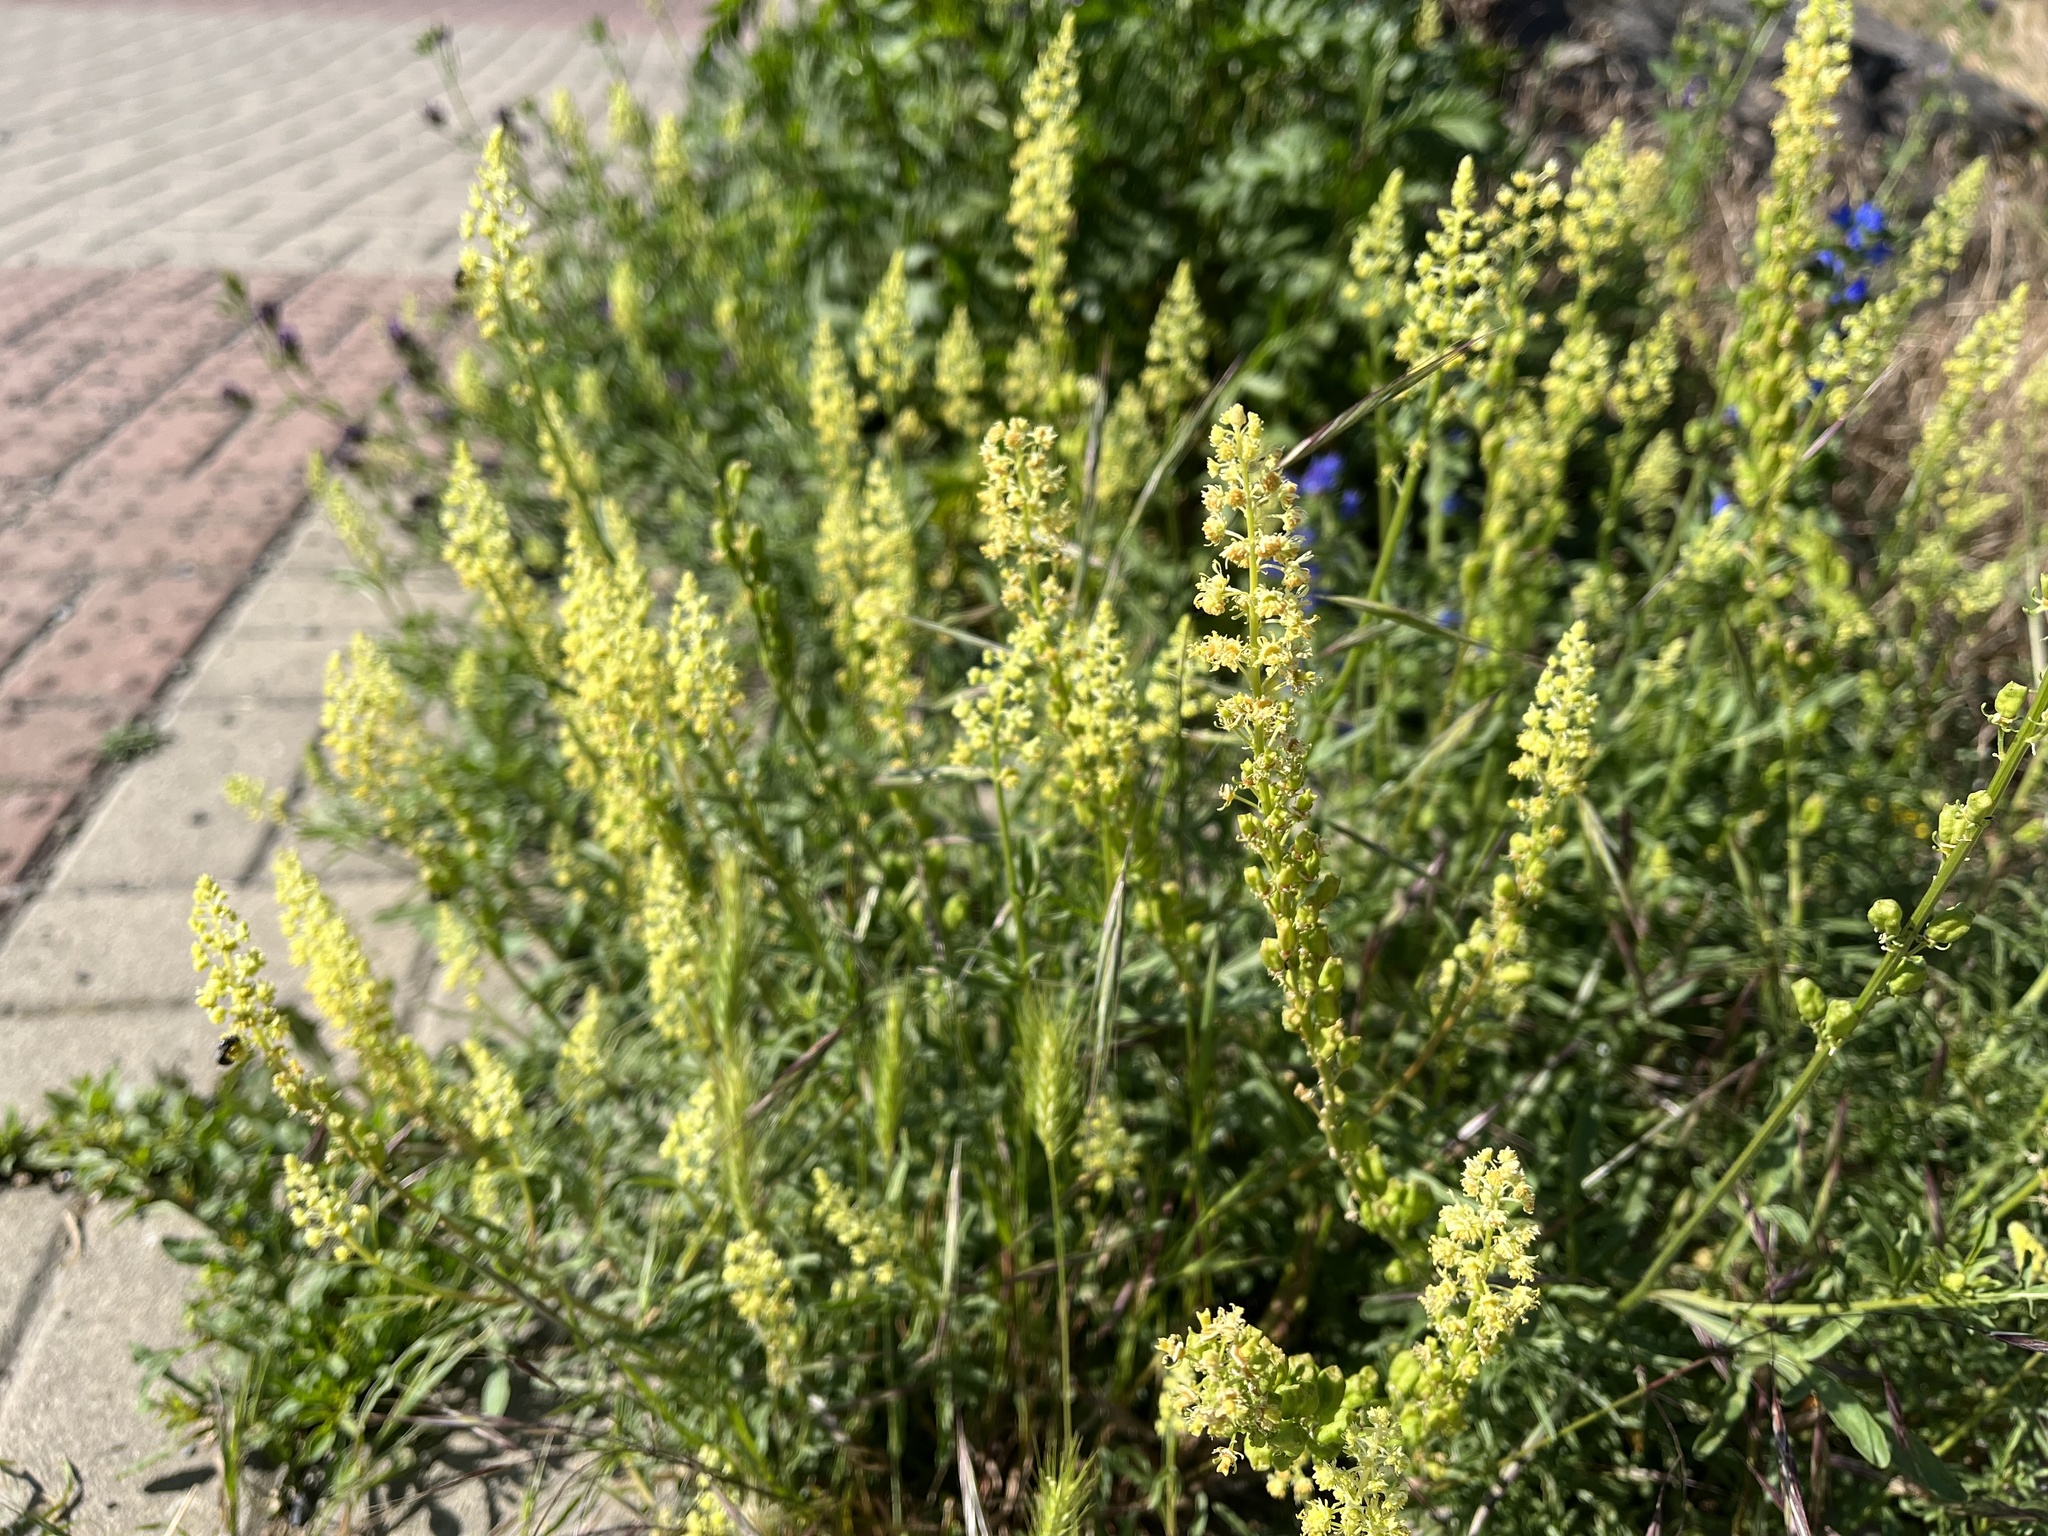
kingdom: Plantae
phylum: Tracheophyta
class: Magnoliopsida
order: Brassicales
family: Resedaceae
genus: Reseda
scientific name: Reseda lutea
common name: Wild mignonette
